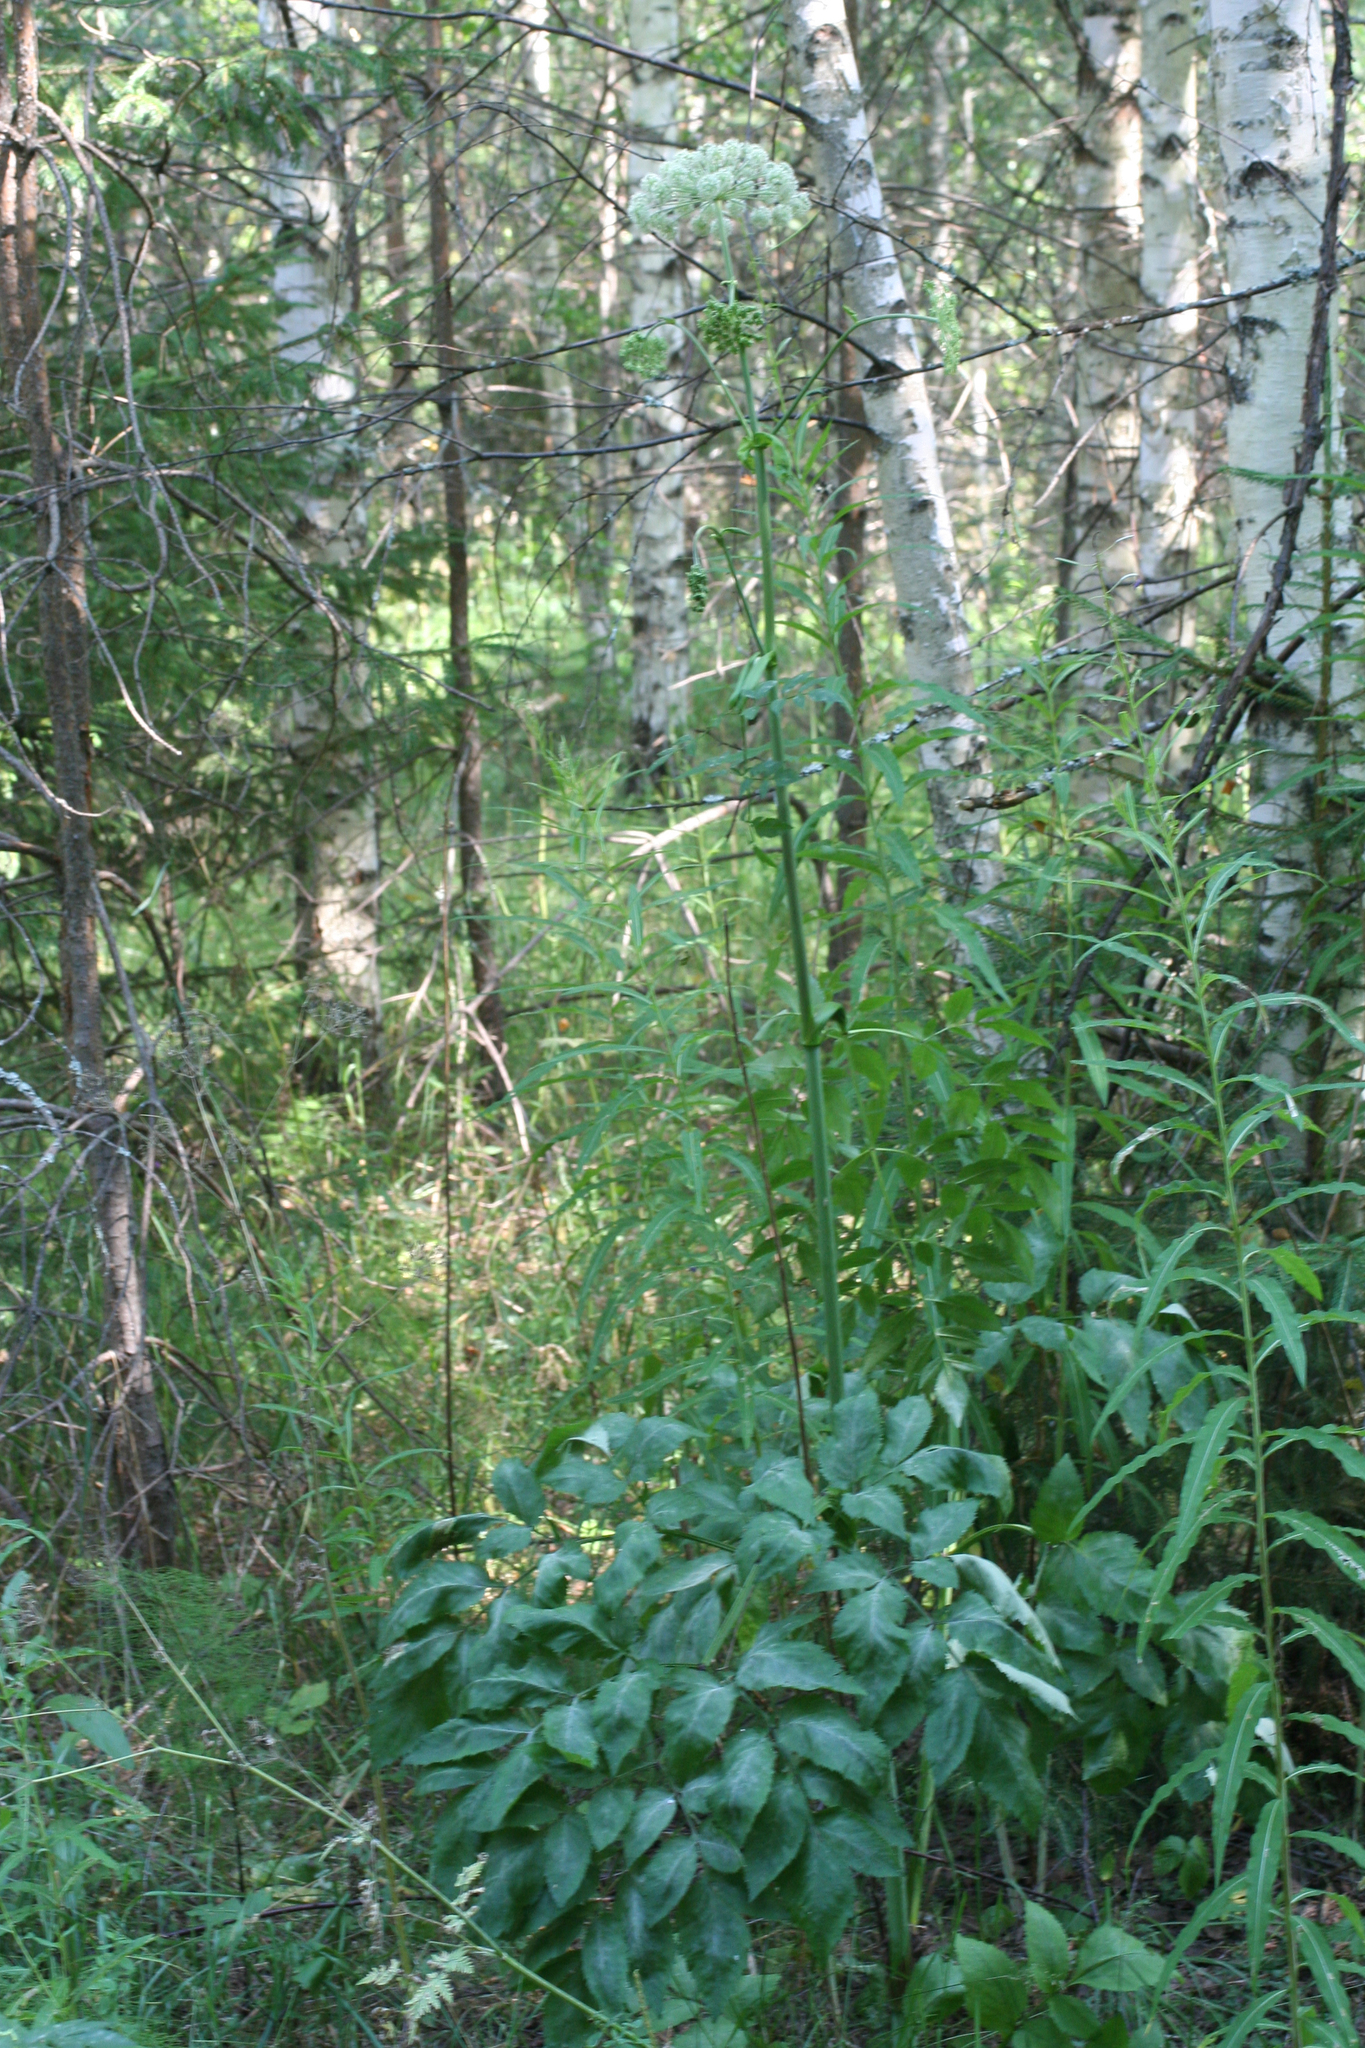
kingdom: Plantae
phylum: Tracheophyta
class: Magnoliopsida
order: Apiales
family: Apiaceae
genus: Angelica
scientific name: Angelica sylvestris
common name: Wild angelica
